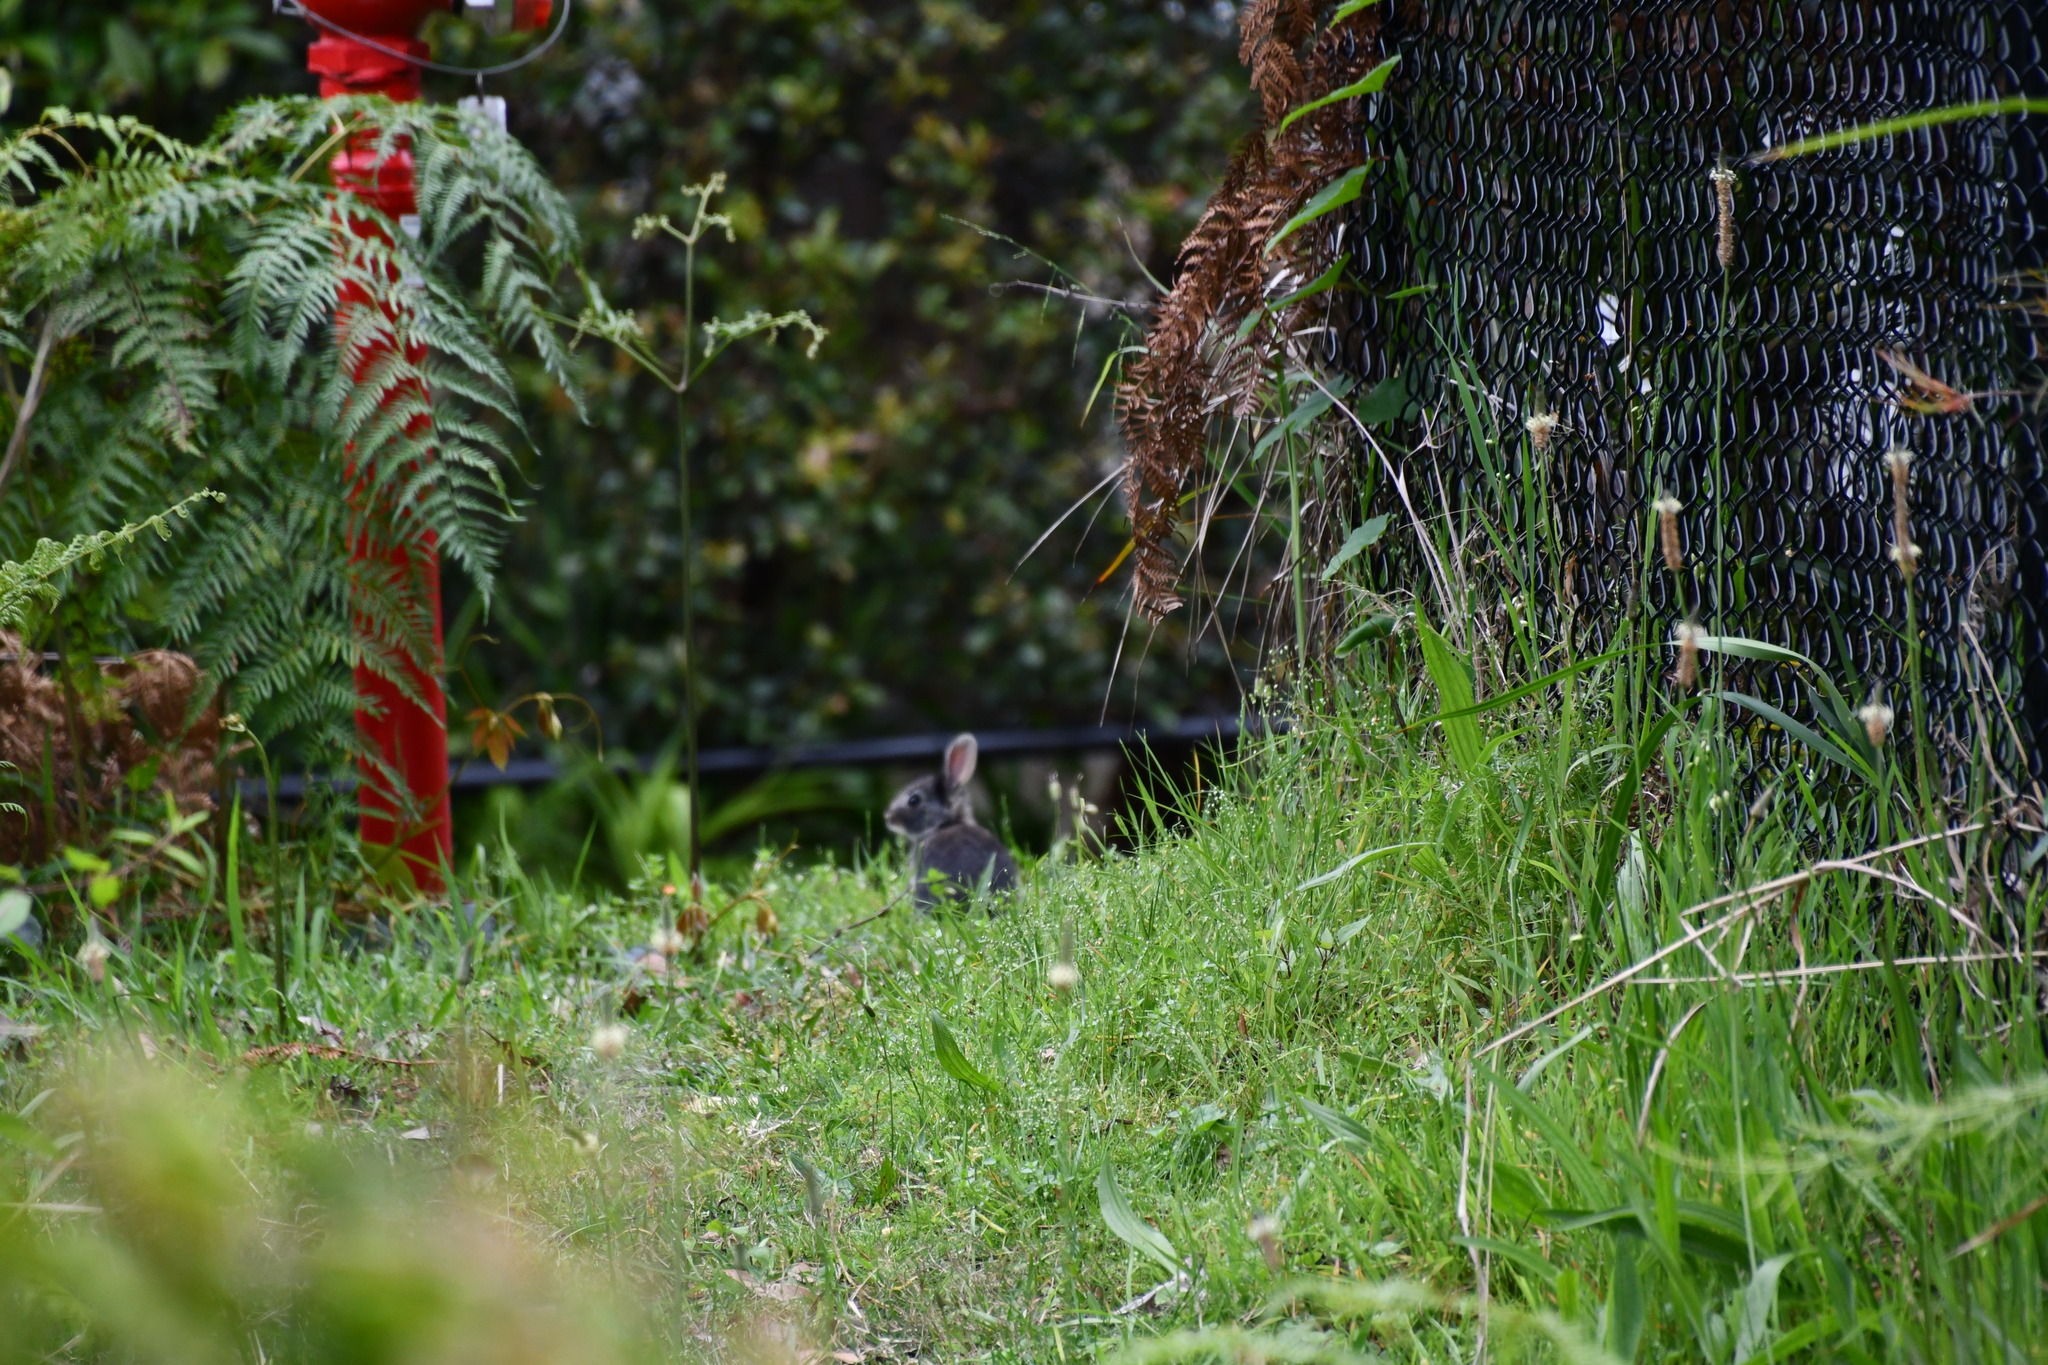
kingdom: Animalia
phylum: Chordata
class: Mammalia
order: Lagomorpha
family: Leporidae
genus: Oryctolagus
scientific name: Oryctolagus cuniculus
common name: European rabbit
